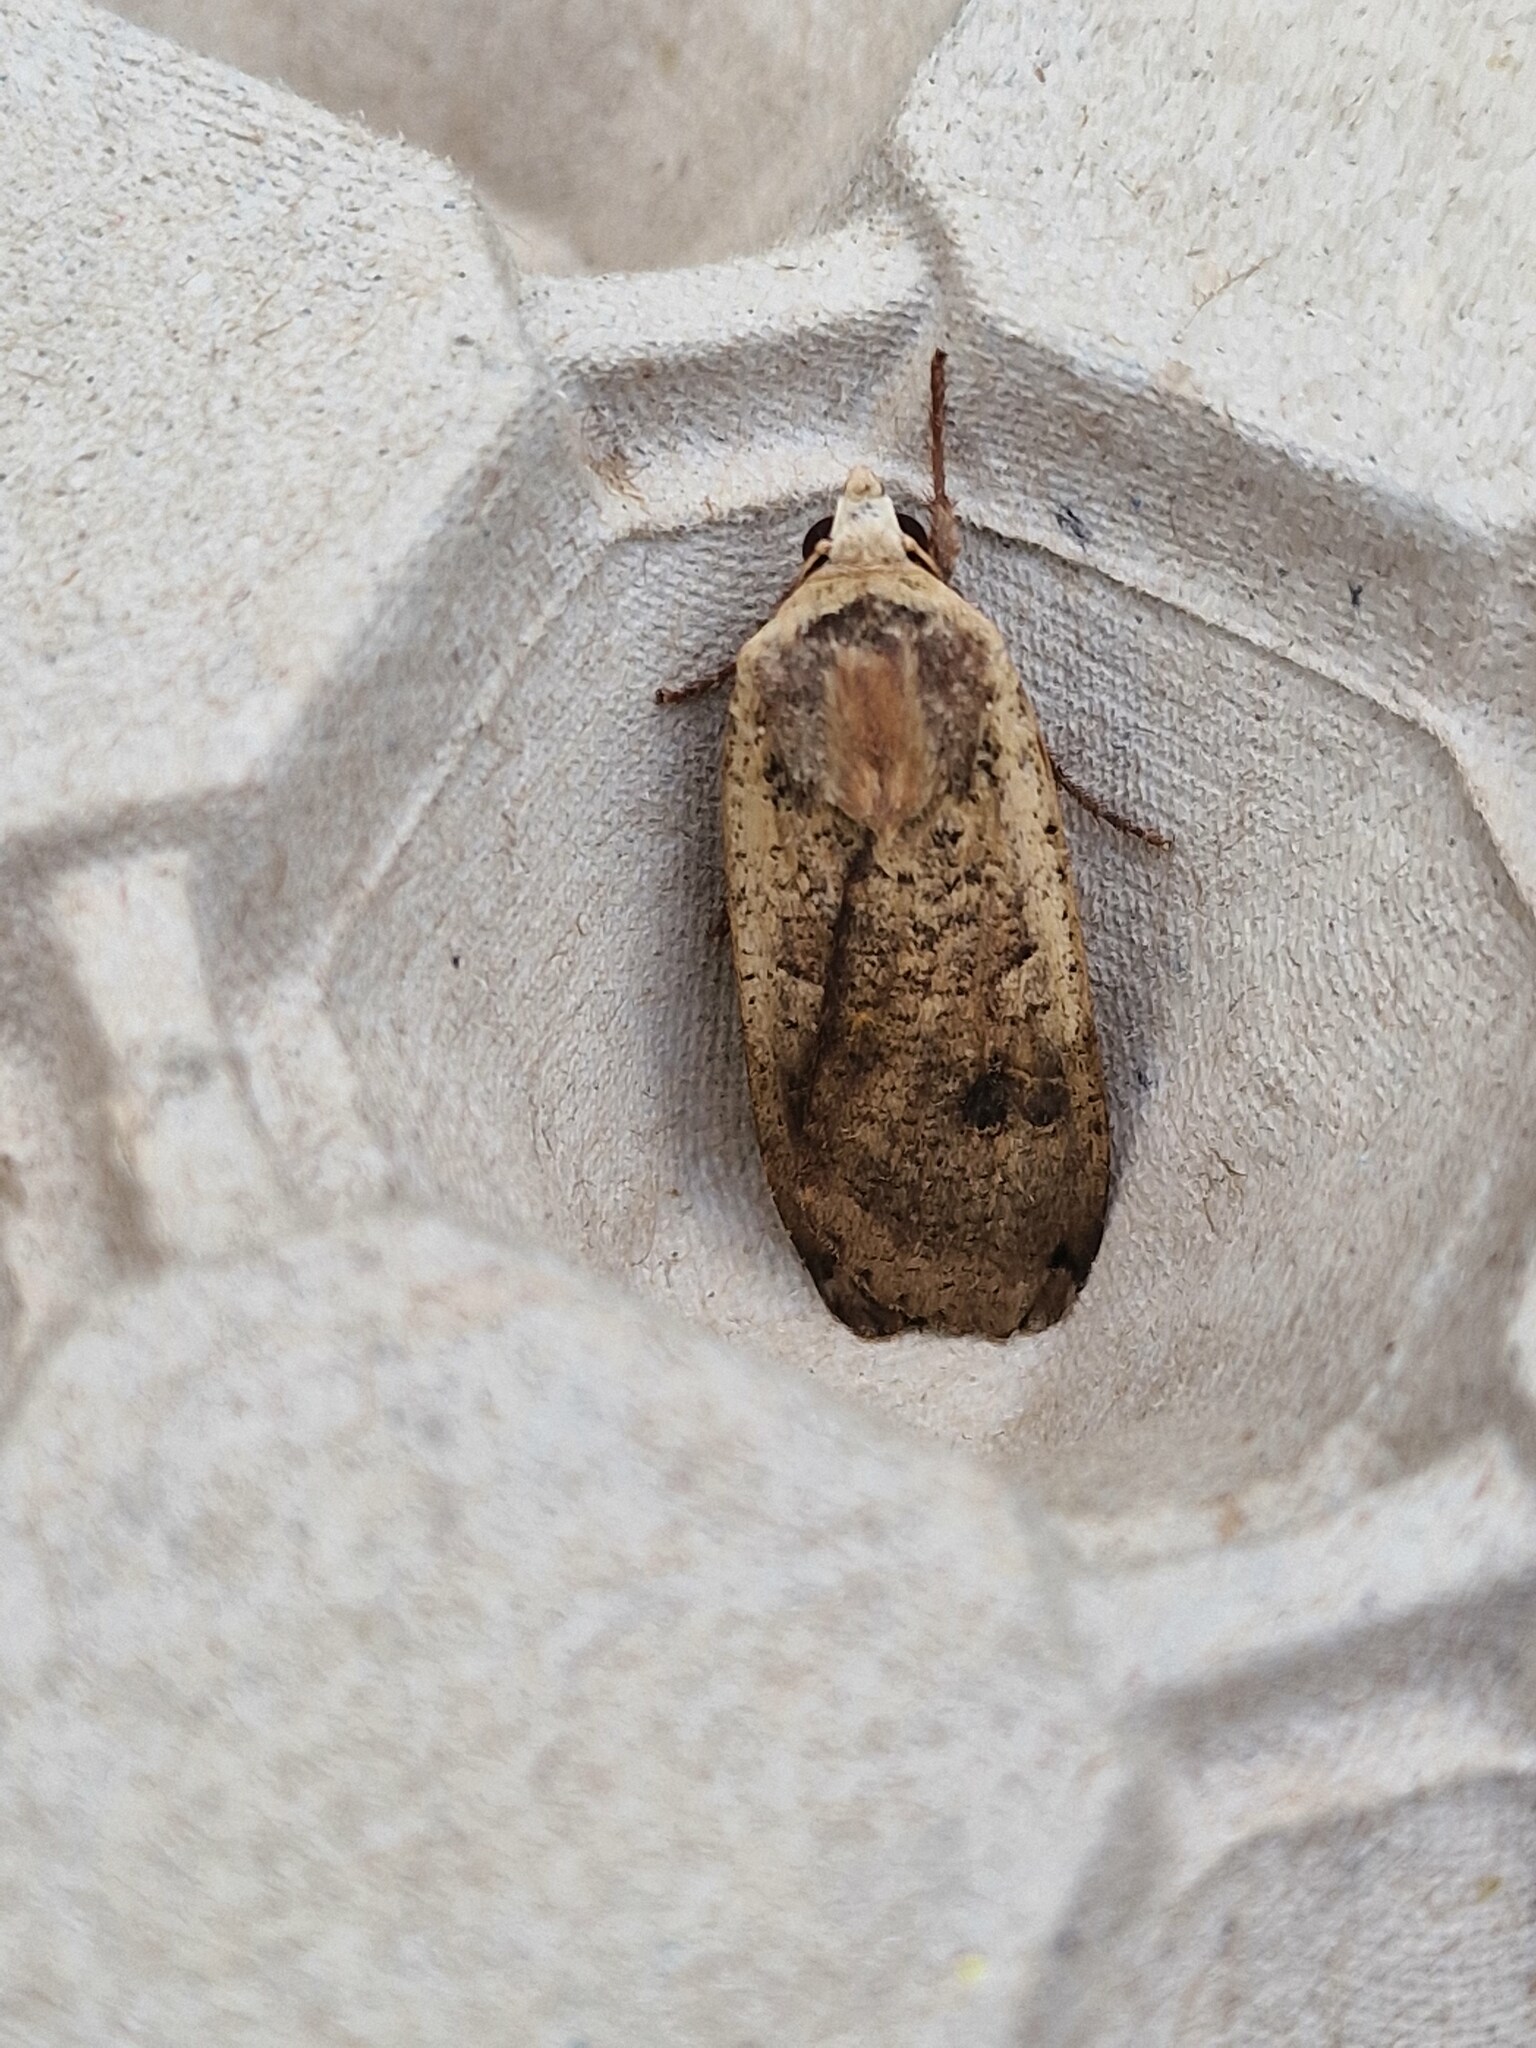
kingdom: Animalia
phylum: Arthropoda
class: Insecta
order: Lepidoptera
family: Noctuidae
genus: Noctua
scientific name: Noctua pronuba
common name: Large yellow underwing
